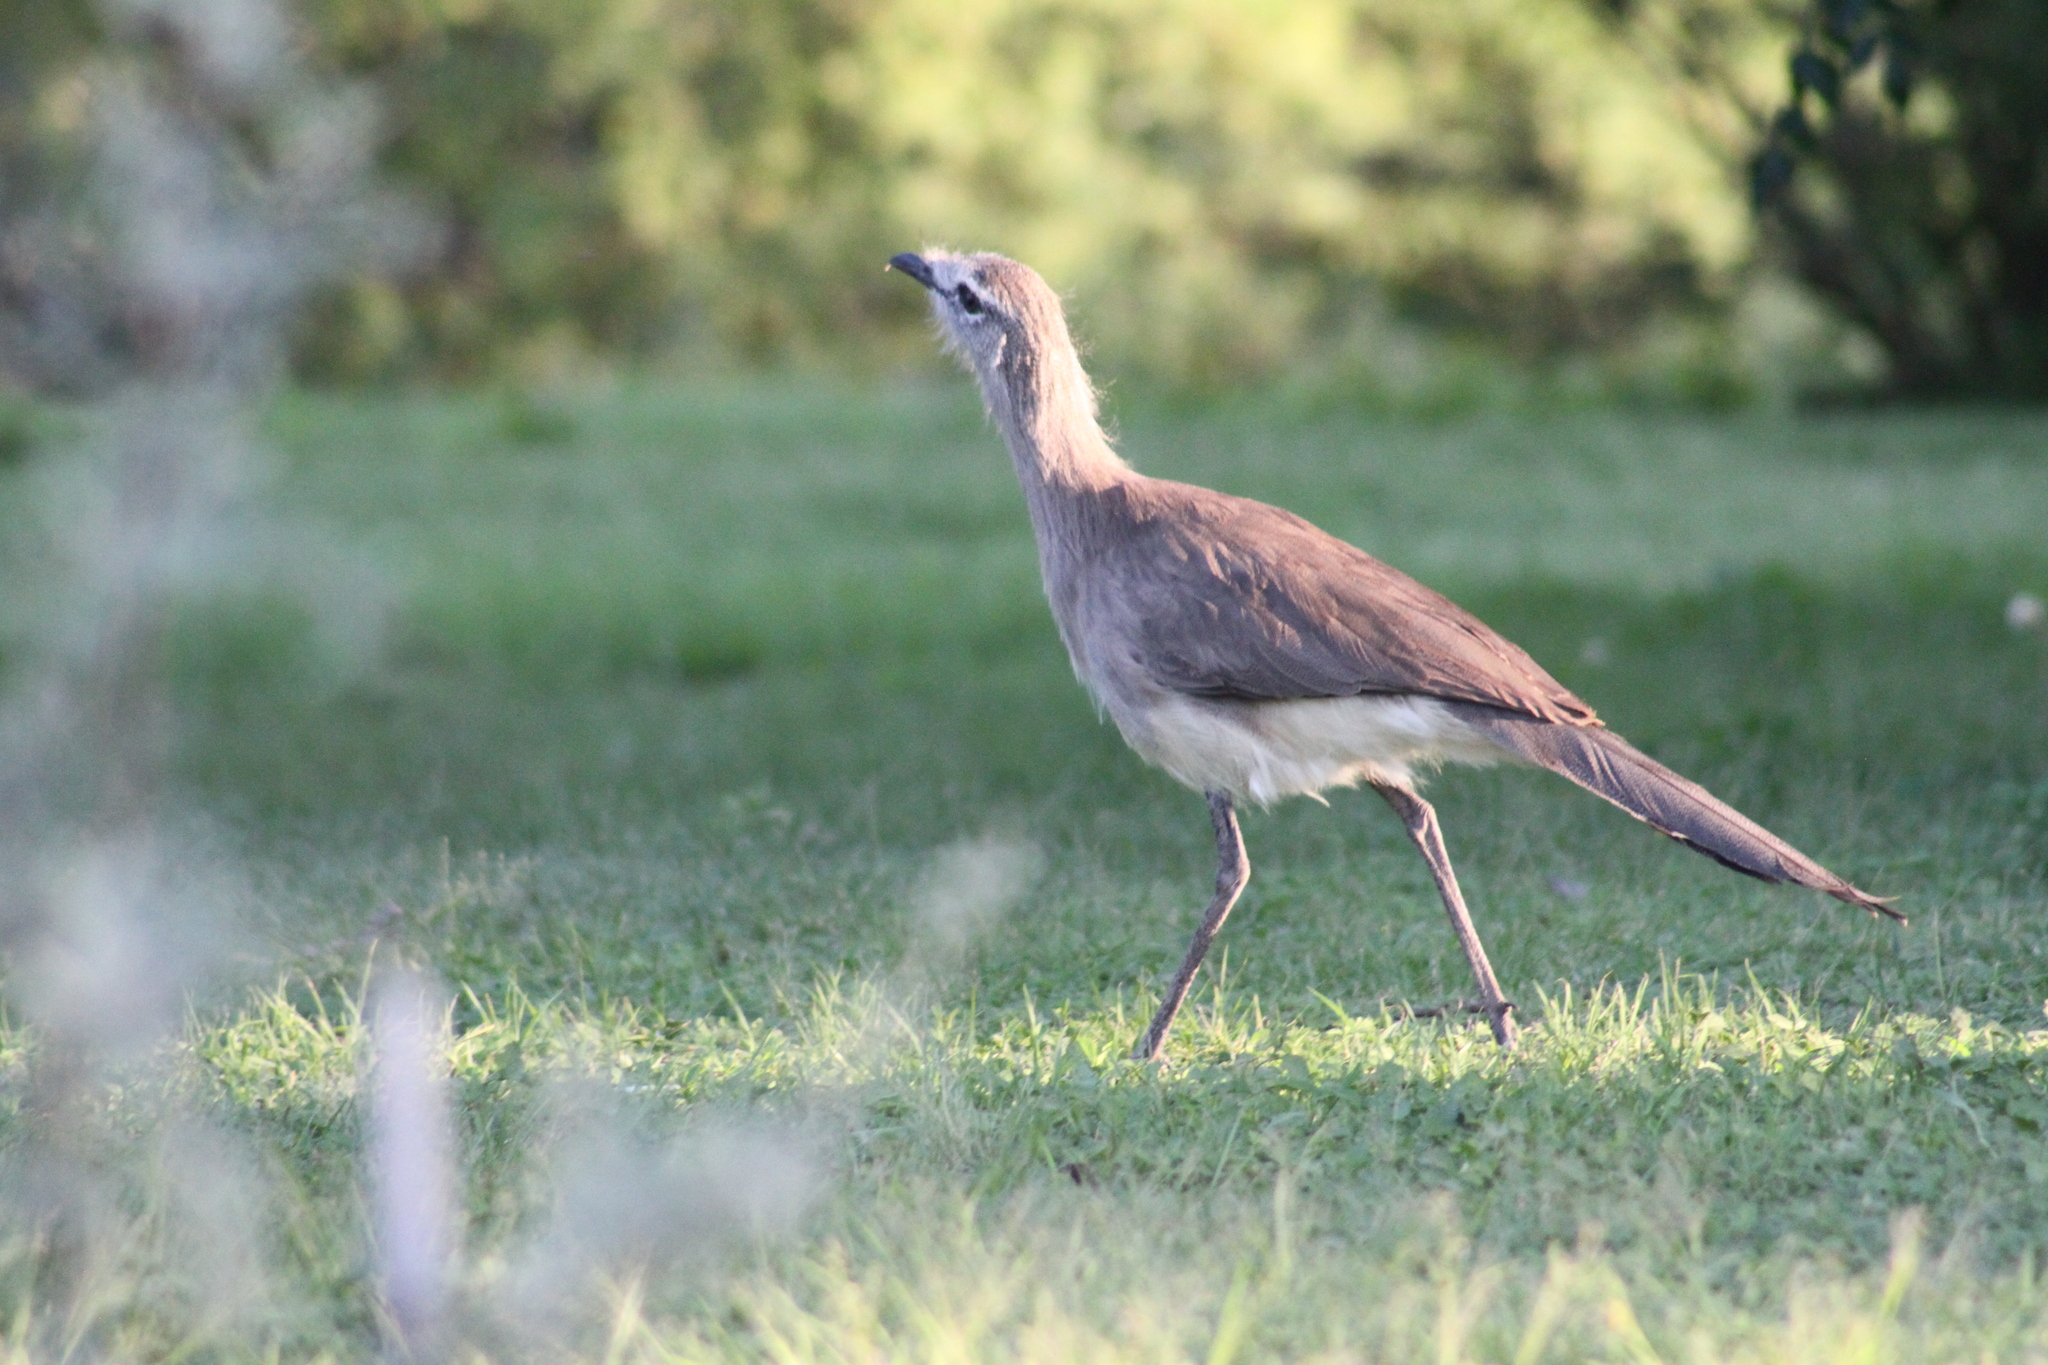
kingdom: Animalia
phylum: Chordata
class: Aves
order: Cariamiformes
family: Cariamidae
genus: Chunga
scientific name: Chunga burmeisteri
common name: Black-legged seriema
